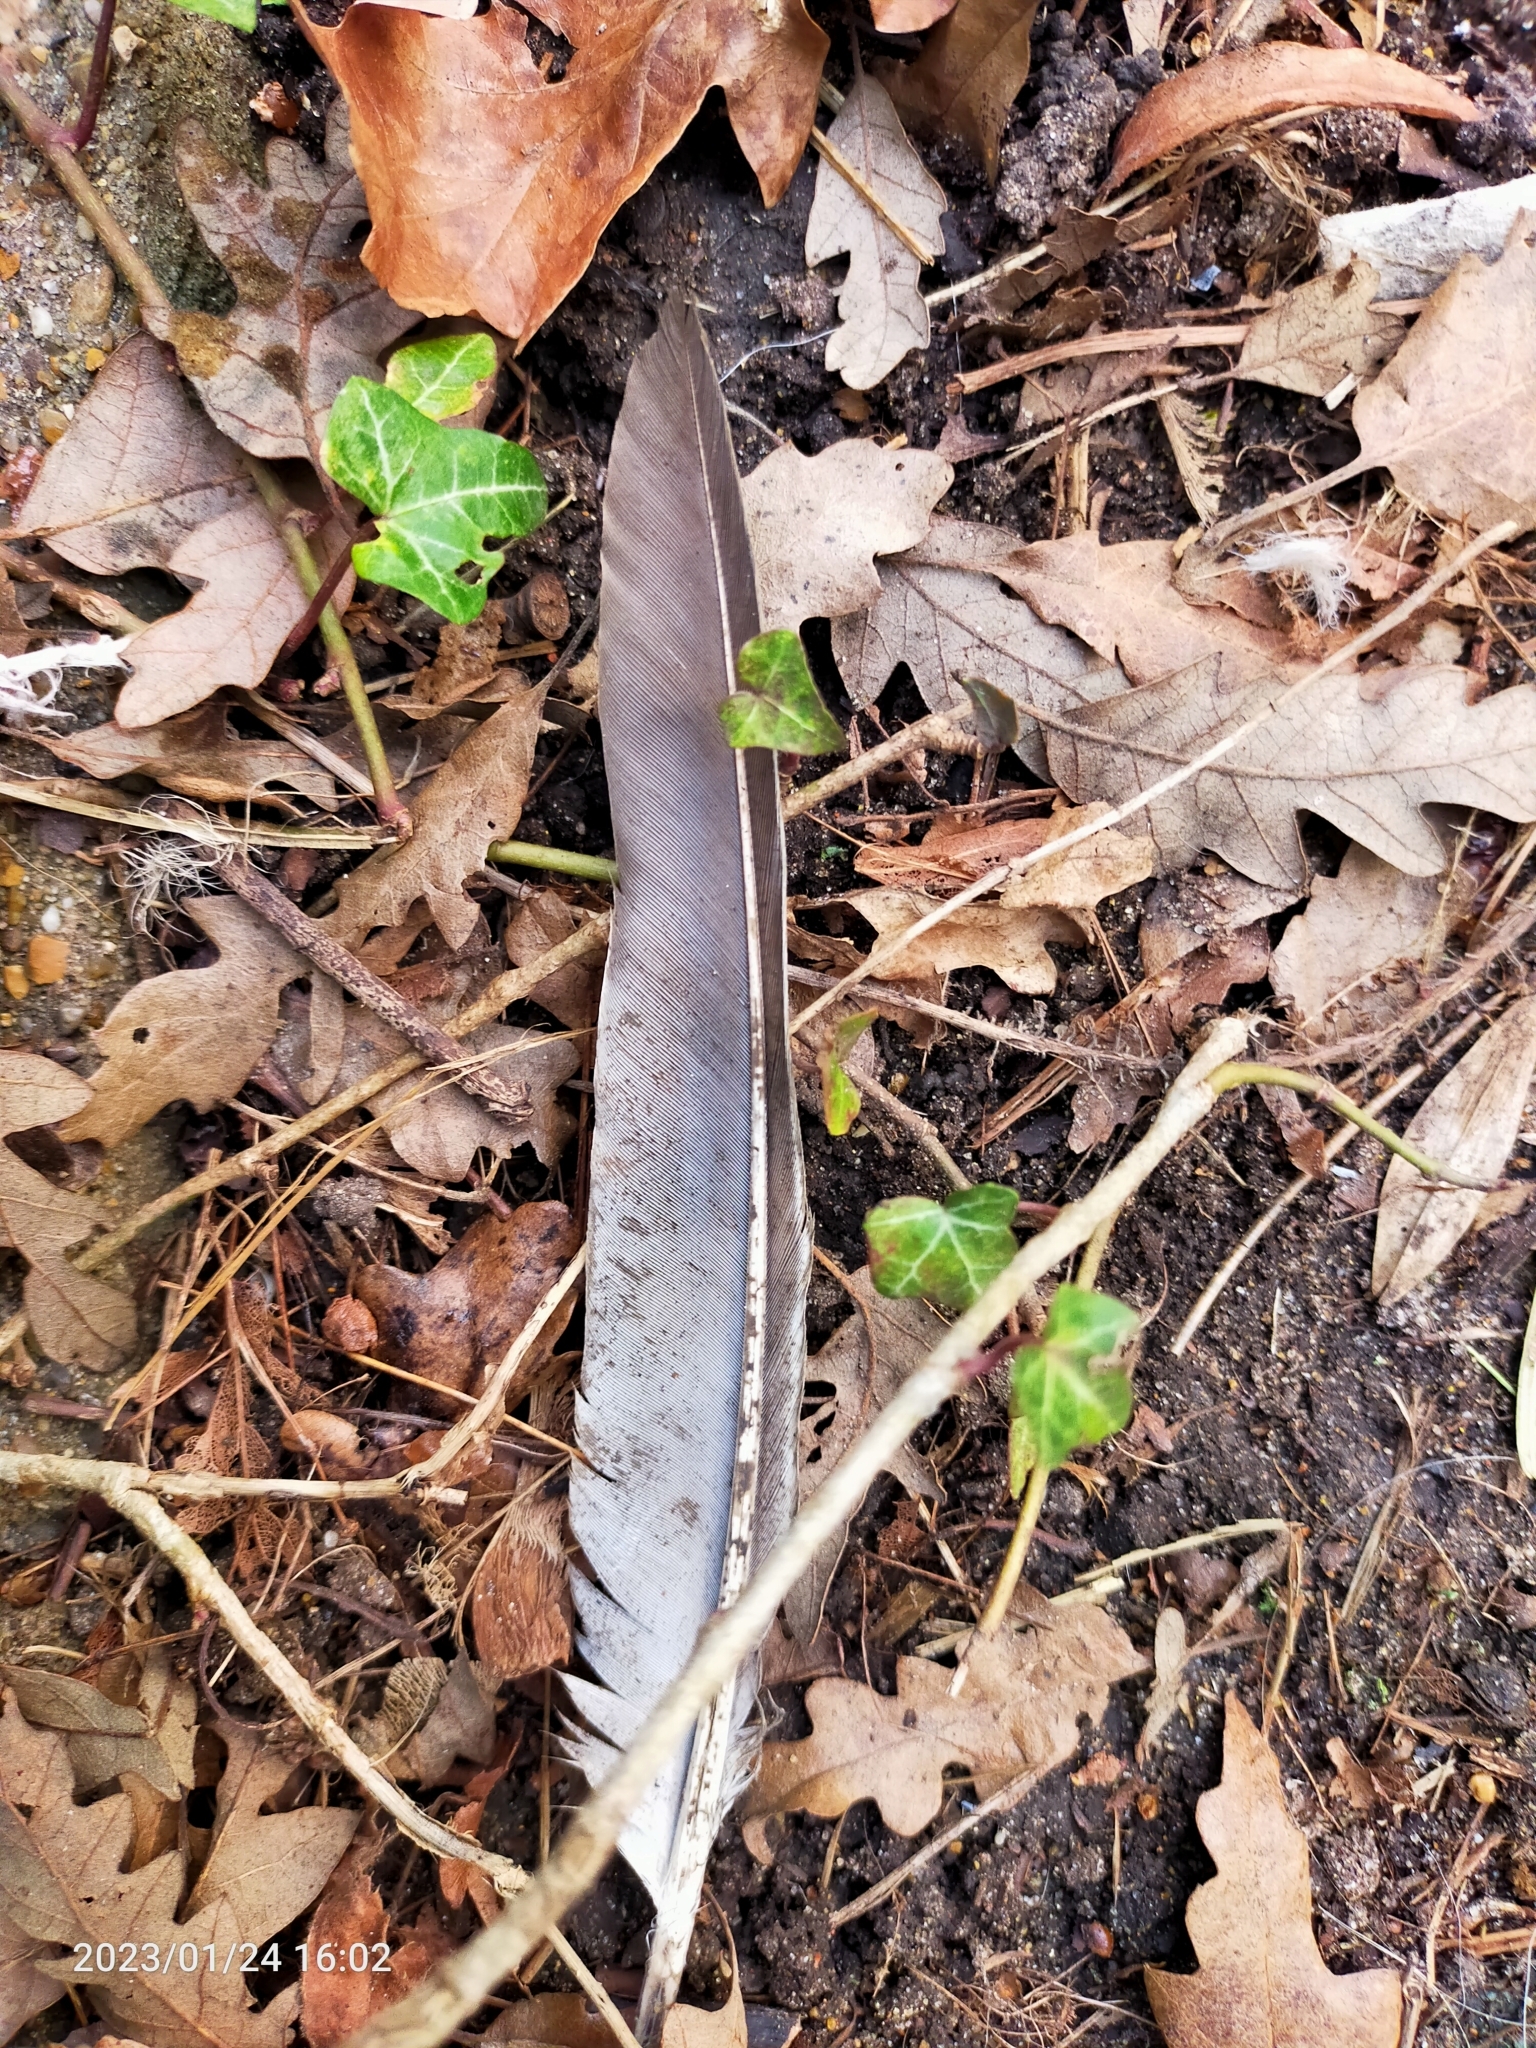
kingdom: Animalia
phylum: Chordata
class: Aves
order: Columbiformes
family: Columbidae
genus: Columba
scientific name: Columba palumbus
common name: Common wood pigeon
